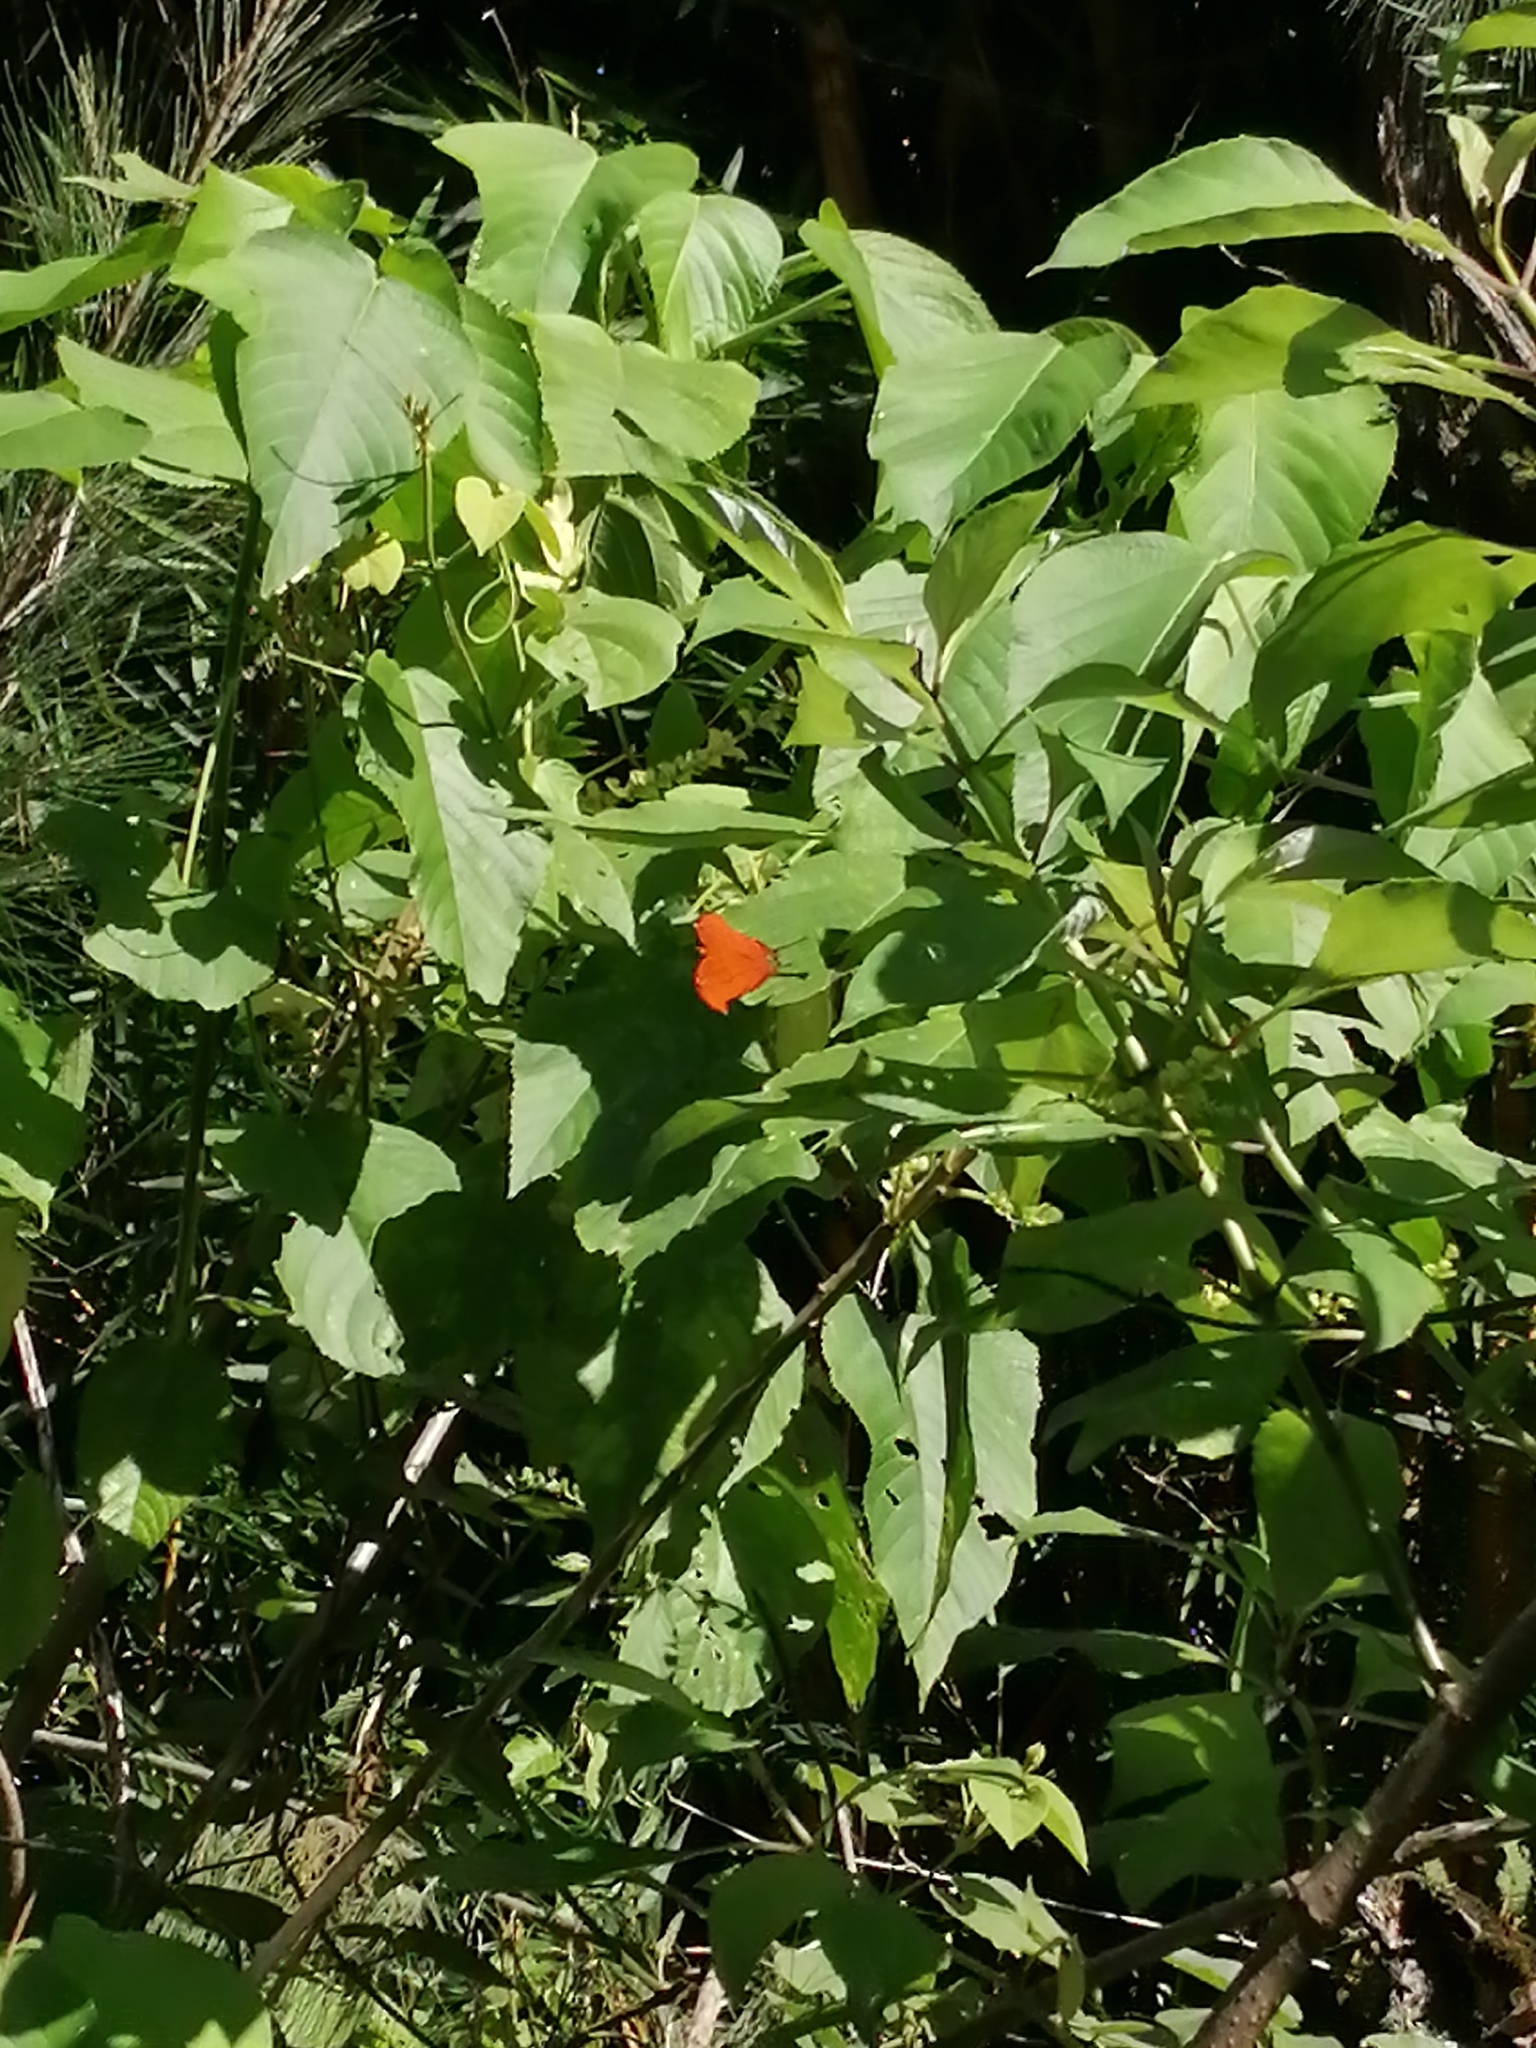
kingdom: Animalia
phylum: Arthropoda
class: Insecta
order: Lepidoptera
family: Nymphalidae
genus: Marpesia
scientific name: Marpesia petreus
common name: Red dagger wing
